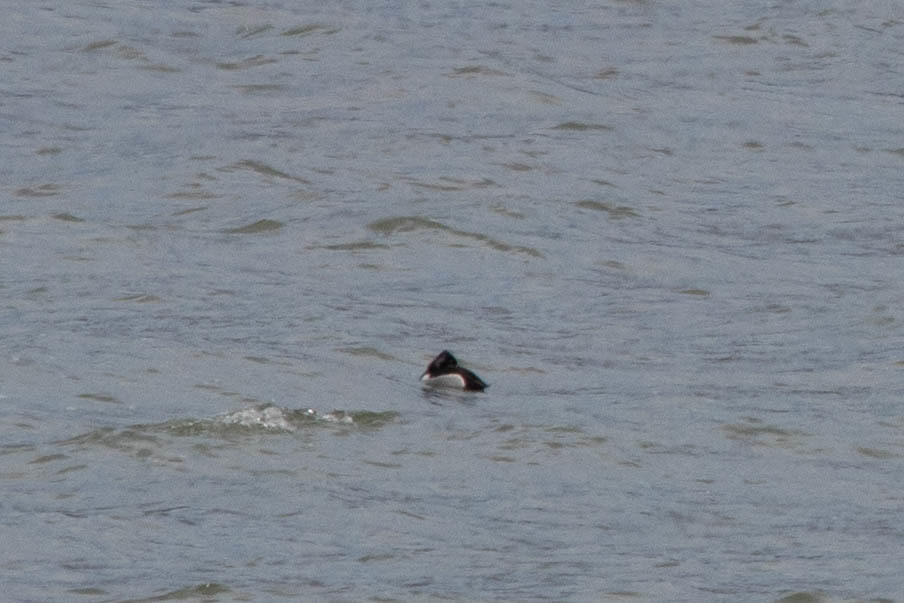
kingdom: Animalia
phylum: Chordata
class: Aves
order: Anseriformes
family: Anatidae
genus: Aythya
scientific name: Aythya collaris
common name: Ring-necked duck
